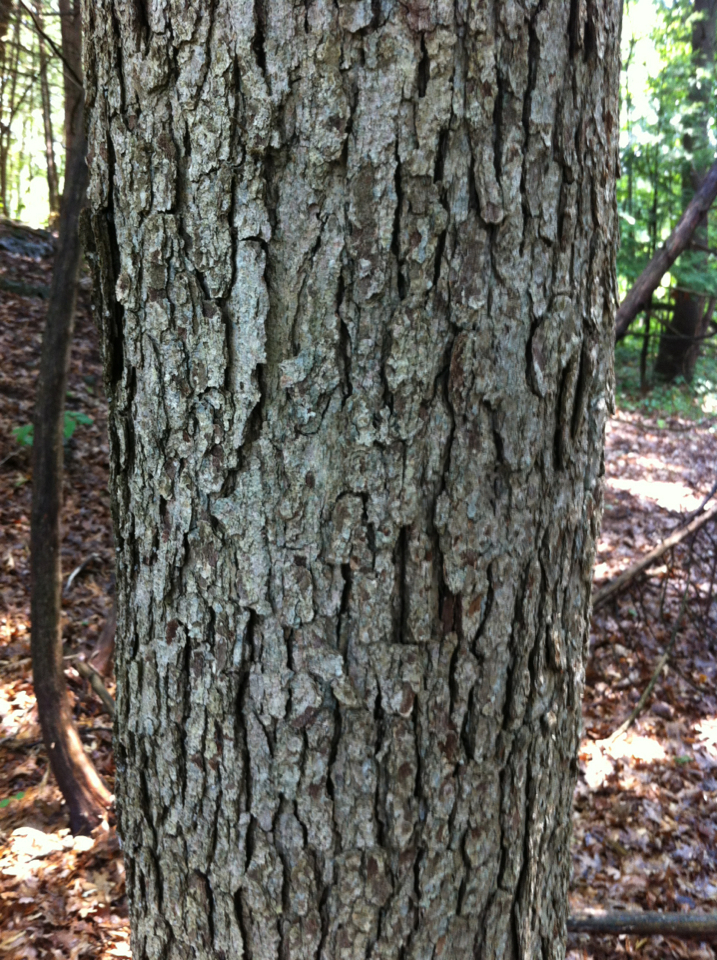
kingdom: Plantae
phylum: Tracheophyta
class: Magnoliopsida
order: Fagales
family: Fagaceae
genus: Quercus
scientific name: Quercus alba
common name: White oak
